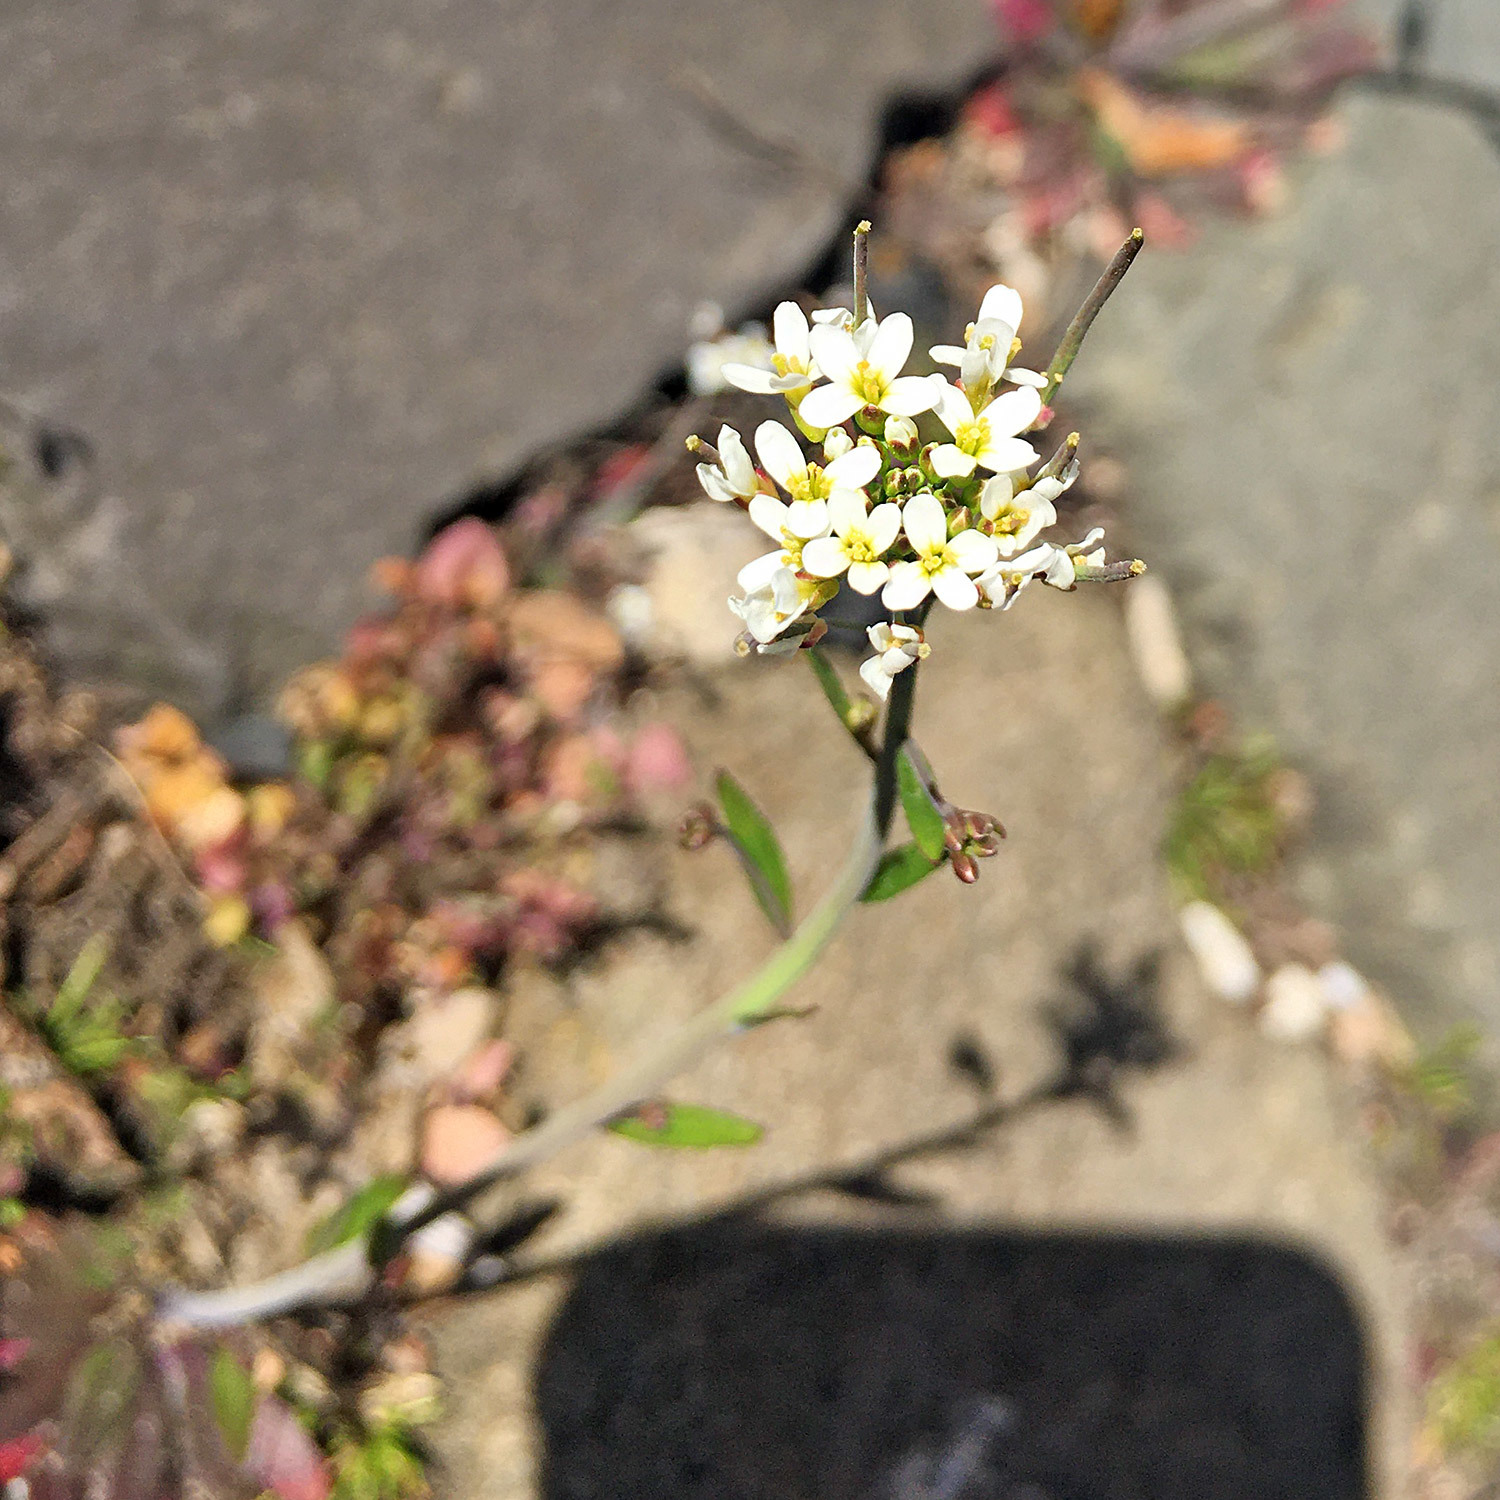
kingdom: Plantae
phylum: Tracheophyta
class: Magnoliopsida
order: Brassicales
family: Brassicaceae
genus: Arabidopsis
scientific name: Arabidopsis thaliana
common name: Thale cress
